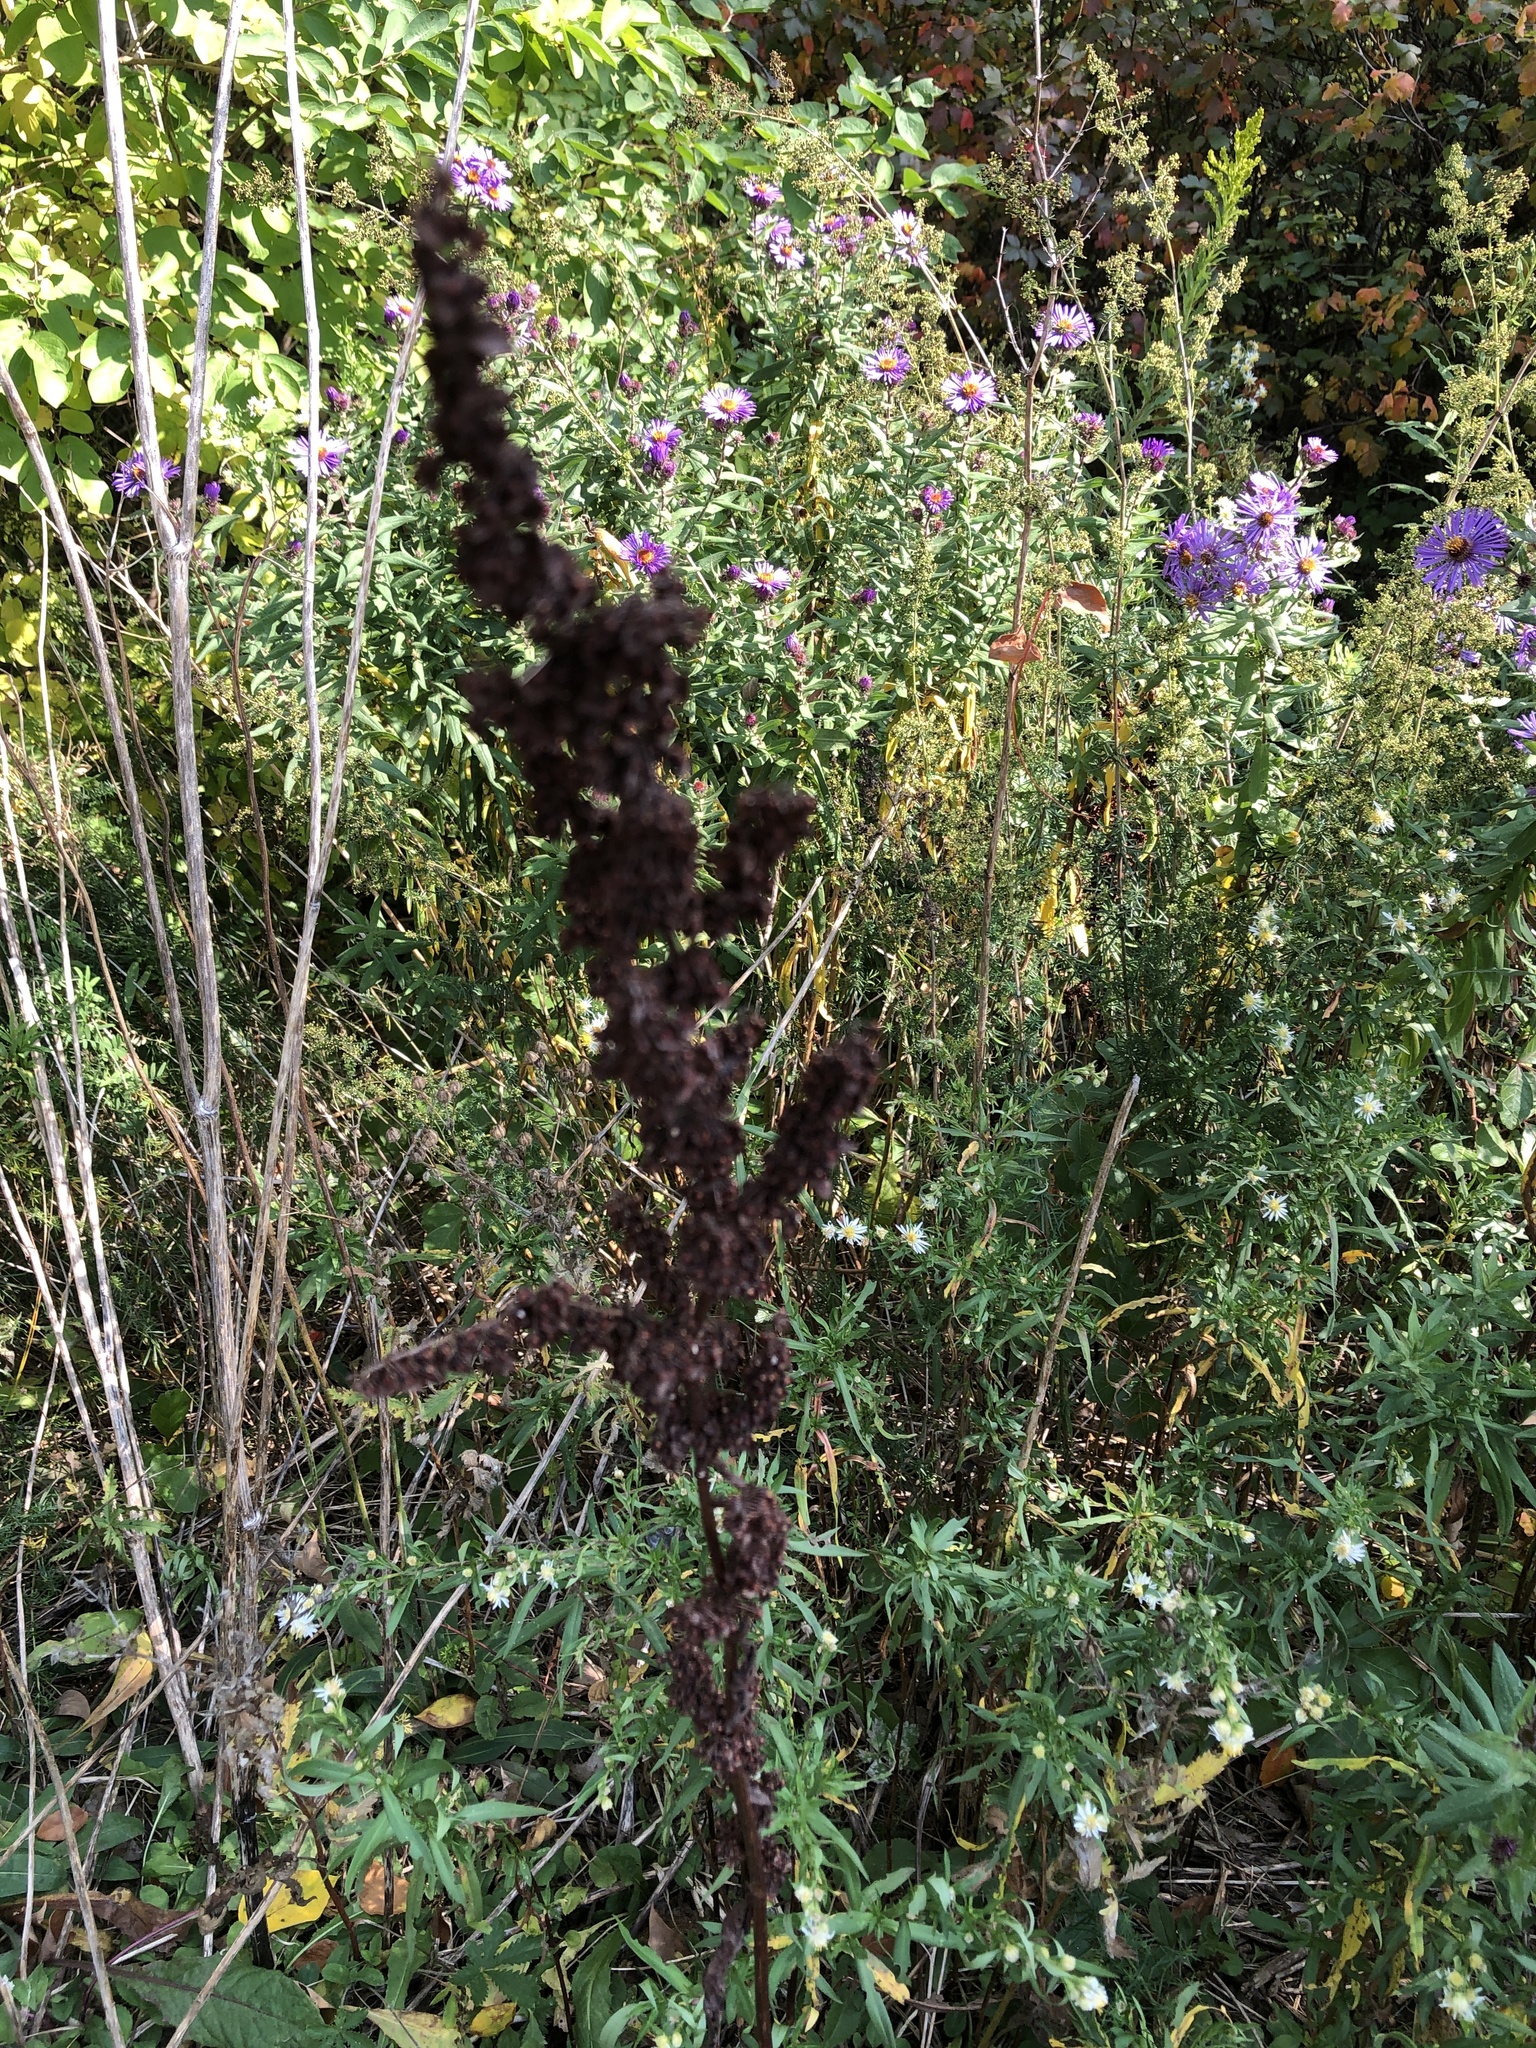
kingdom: Plantae
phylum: Tracheophyta
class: Magnoliopsida
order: Caryophyllales
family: Polygonaceae
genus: Rumex
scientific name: Rumex crispus
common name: Curled dock
